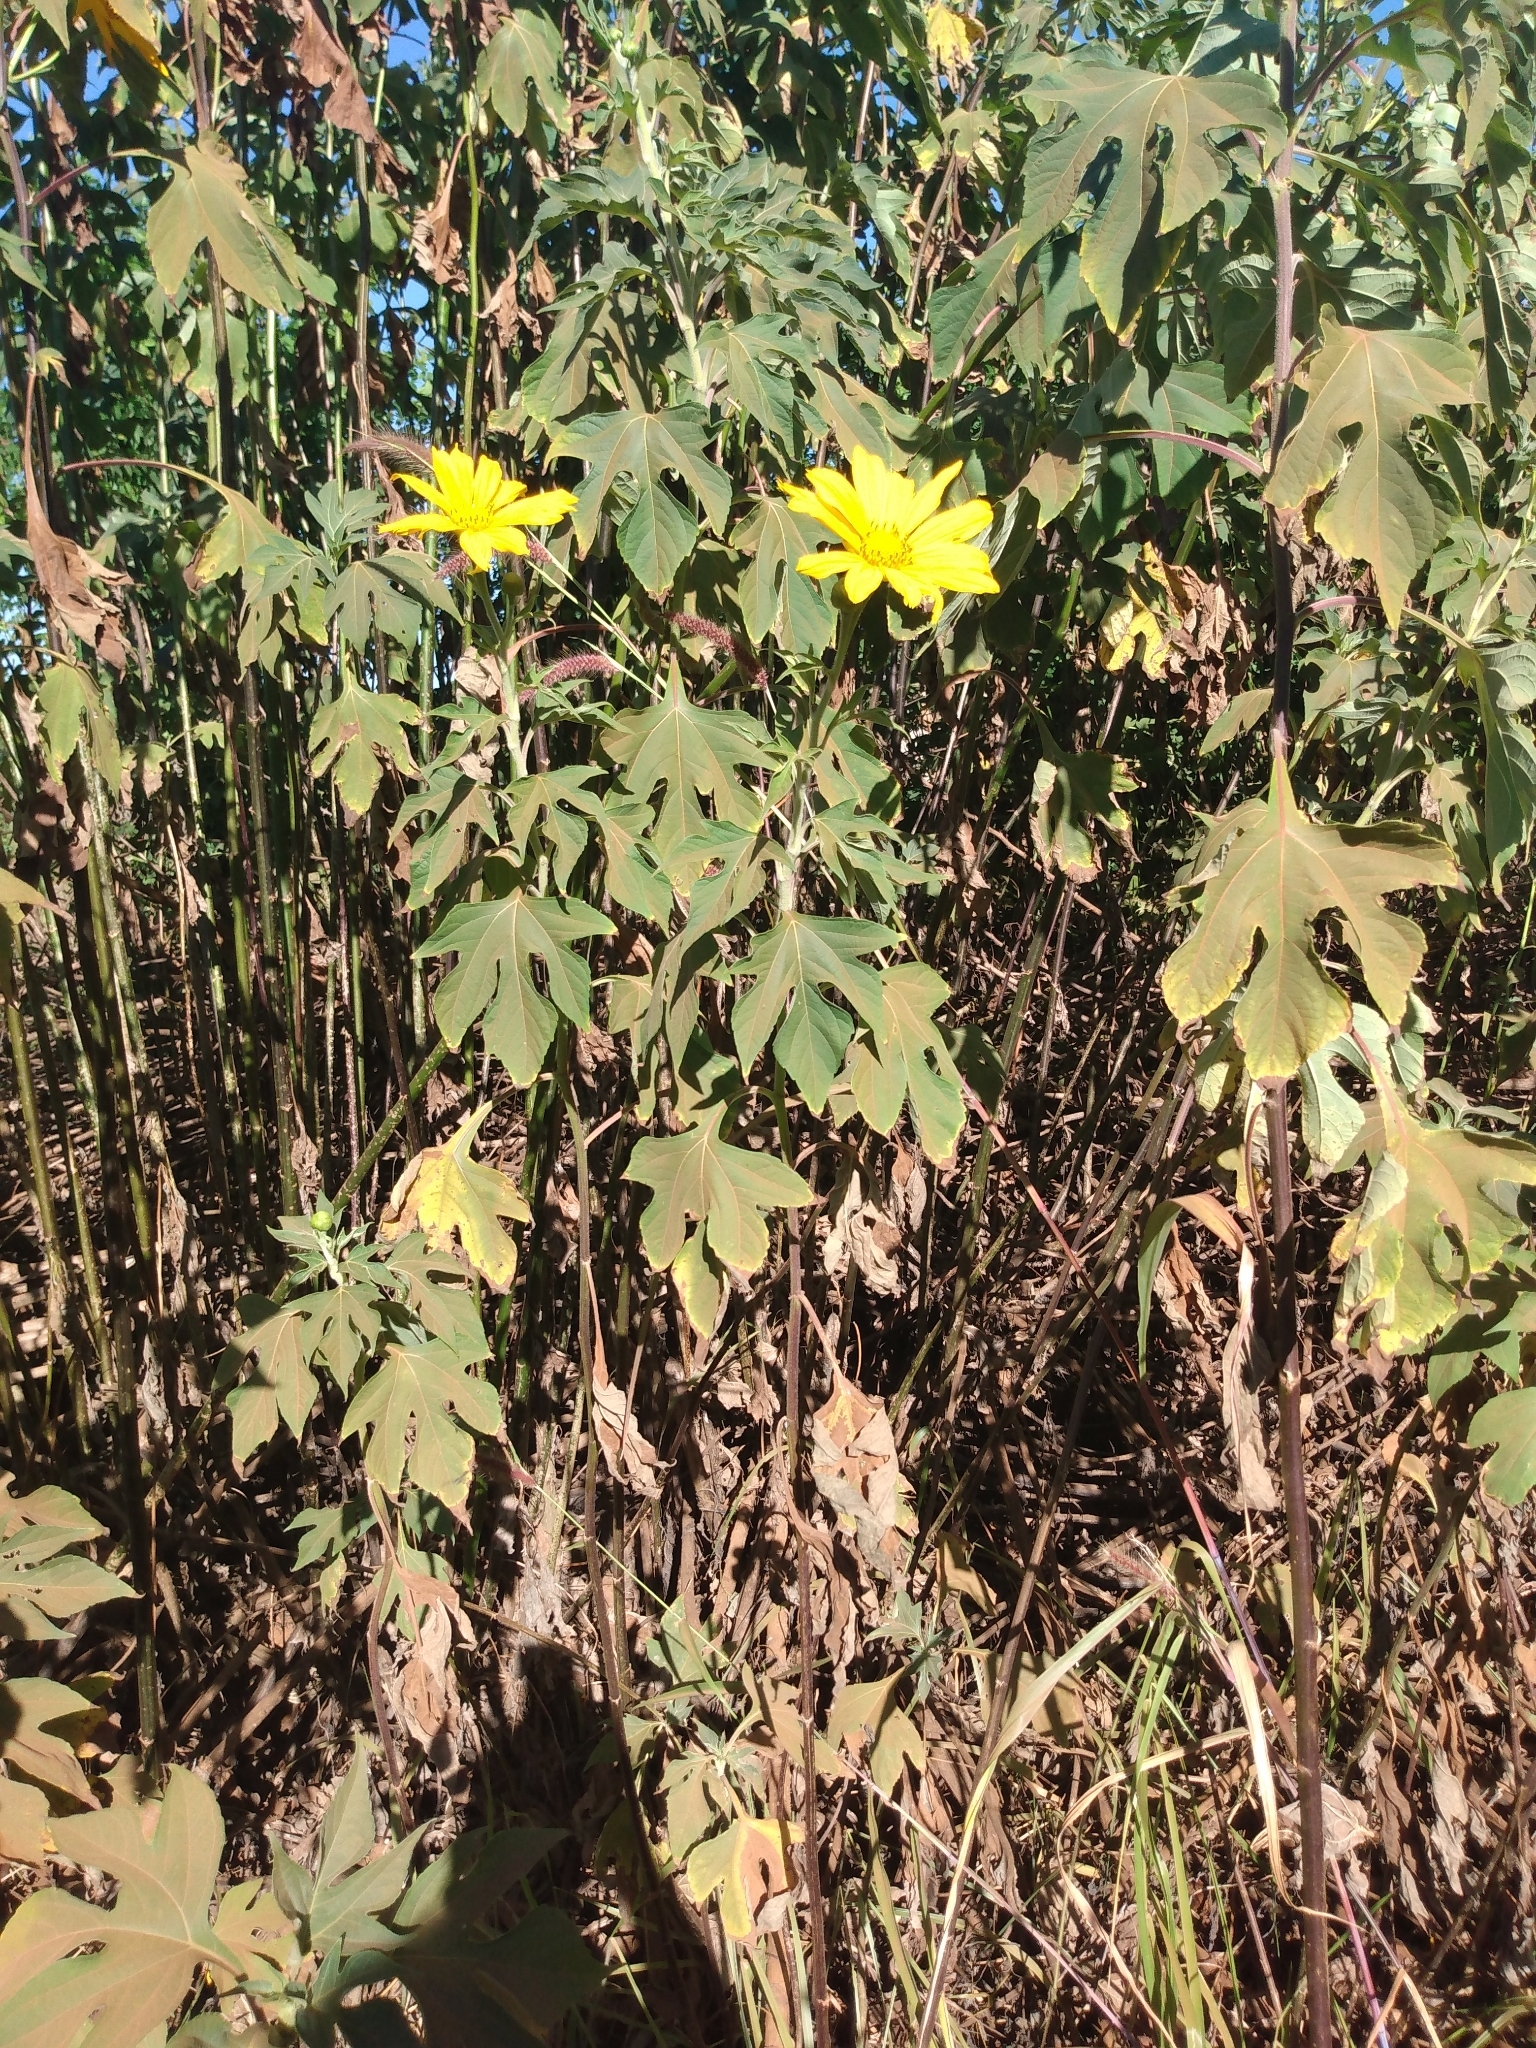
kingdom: Plantae
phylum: Tracheophyta
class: Magnoliopsida
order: Asterales
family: Asteraceae
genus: Tithonia
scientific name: Tithonia diversifolia
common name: Tree marigold
